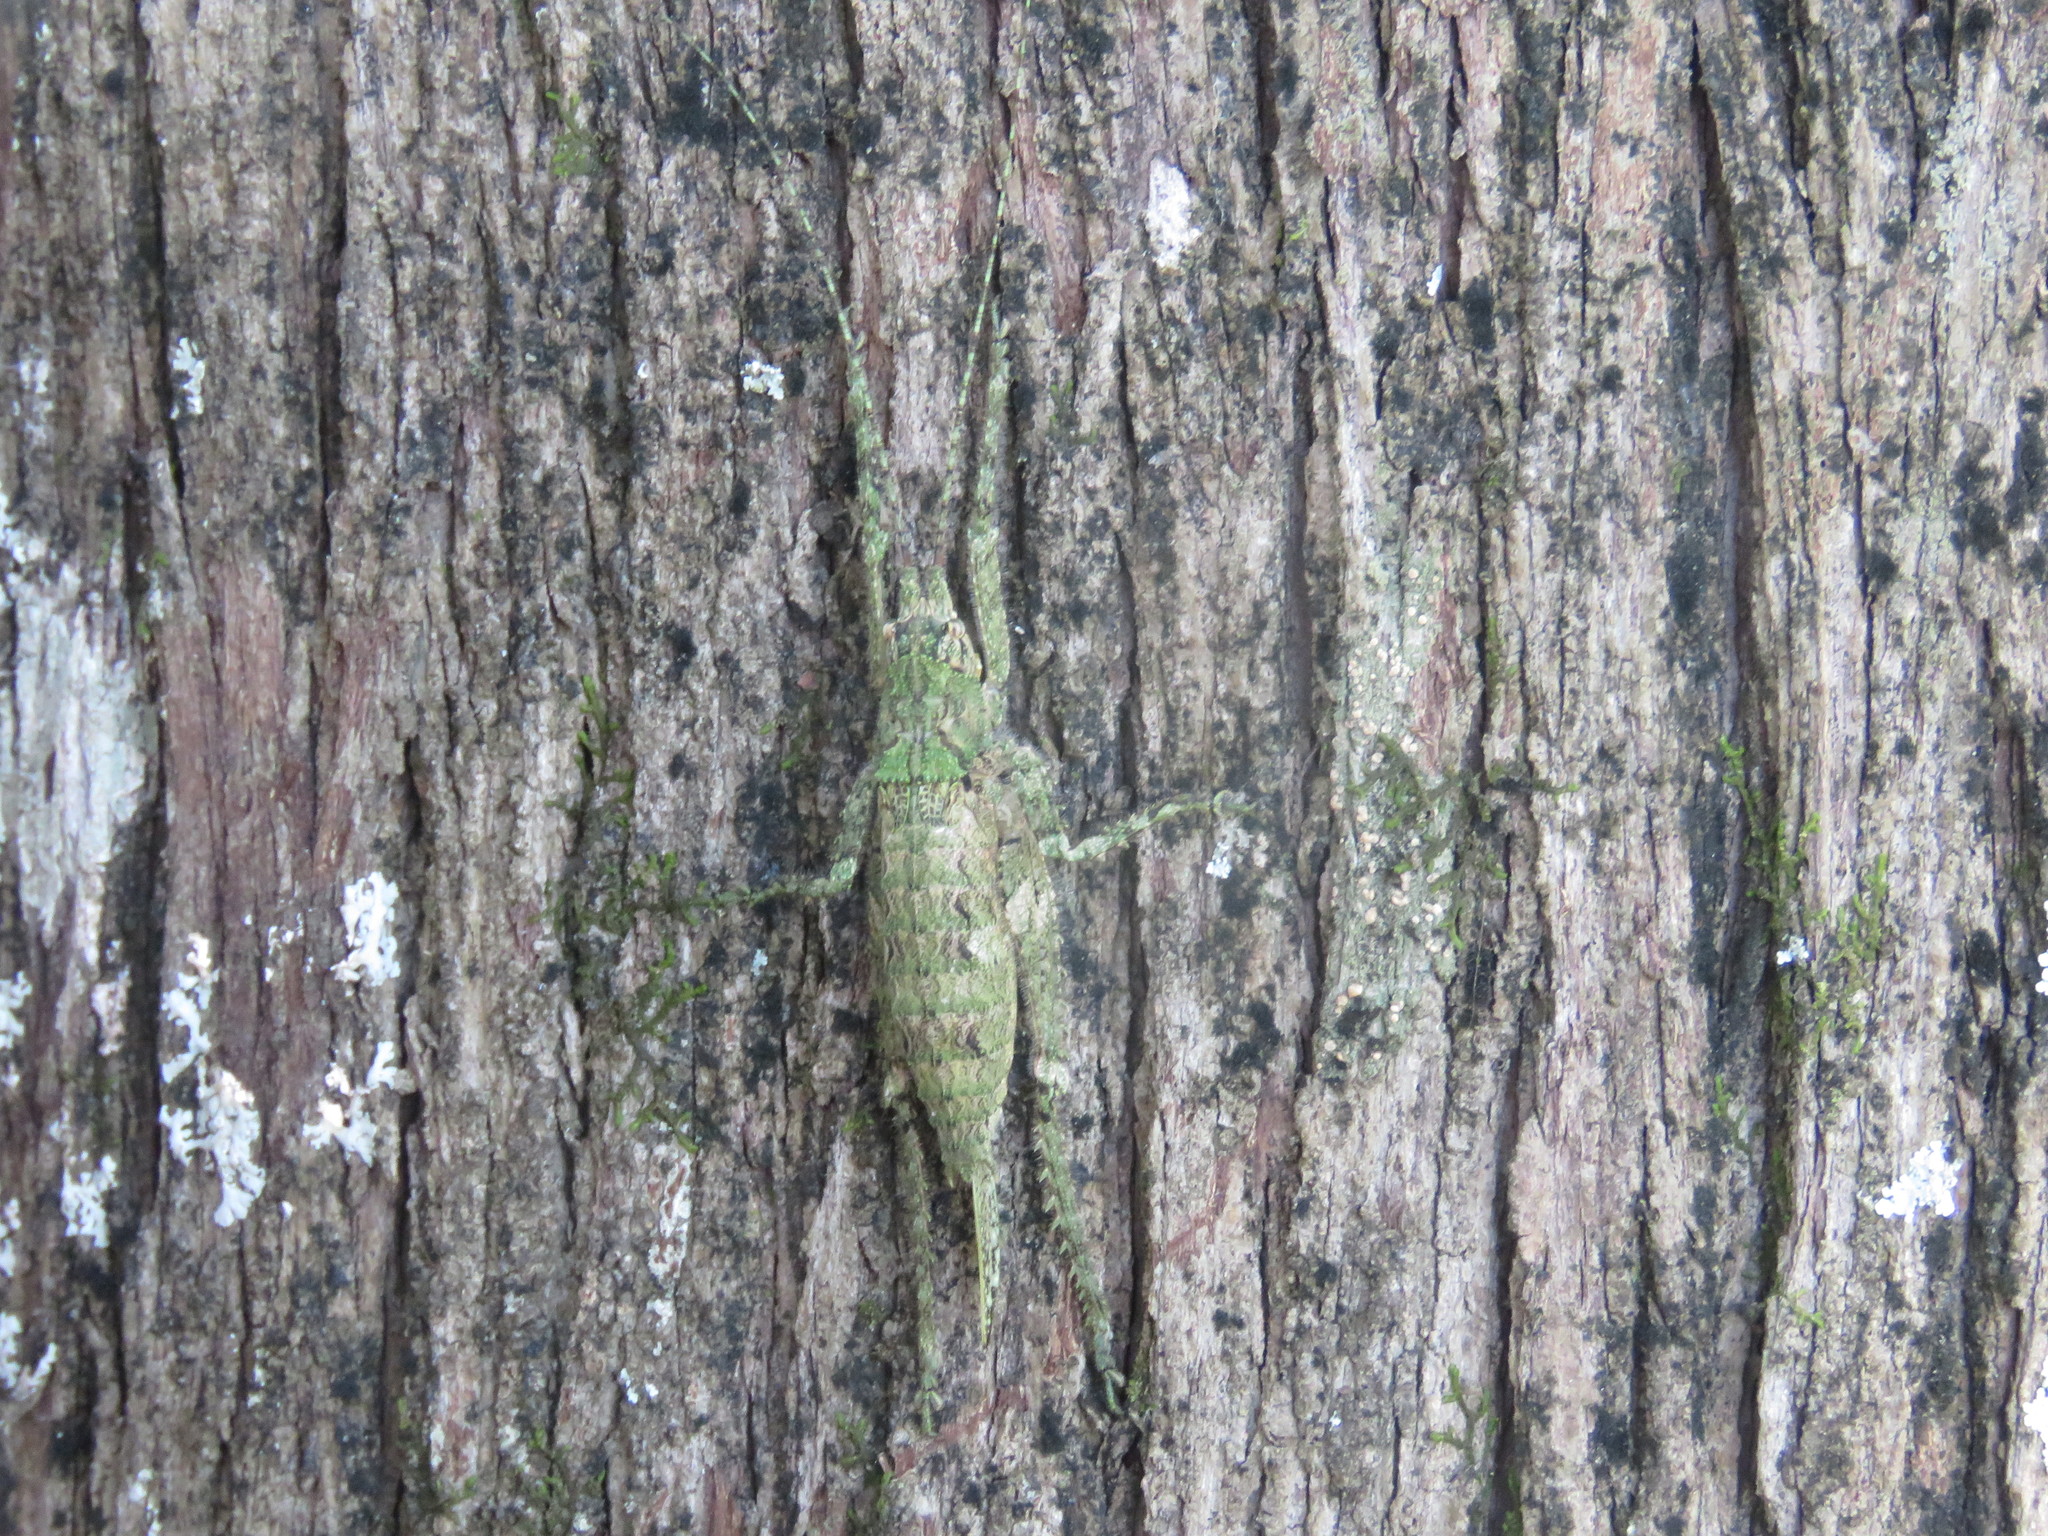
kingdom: Animalia
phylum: Arthropoda
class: Insecta
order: Orthoptera
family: Tettigoniidae
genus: Dasyscelus
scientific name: Dasyscelus normalis
